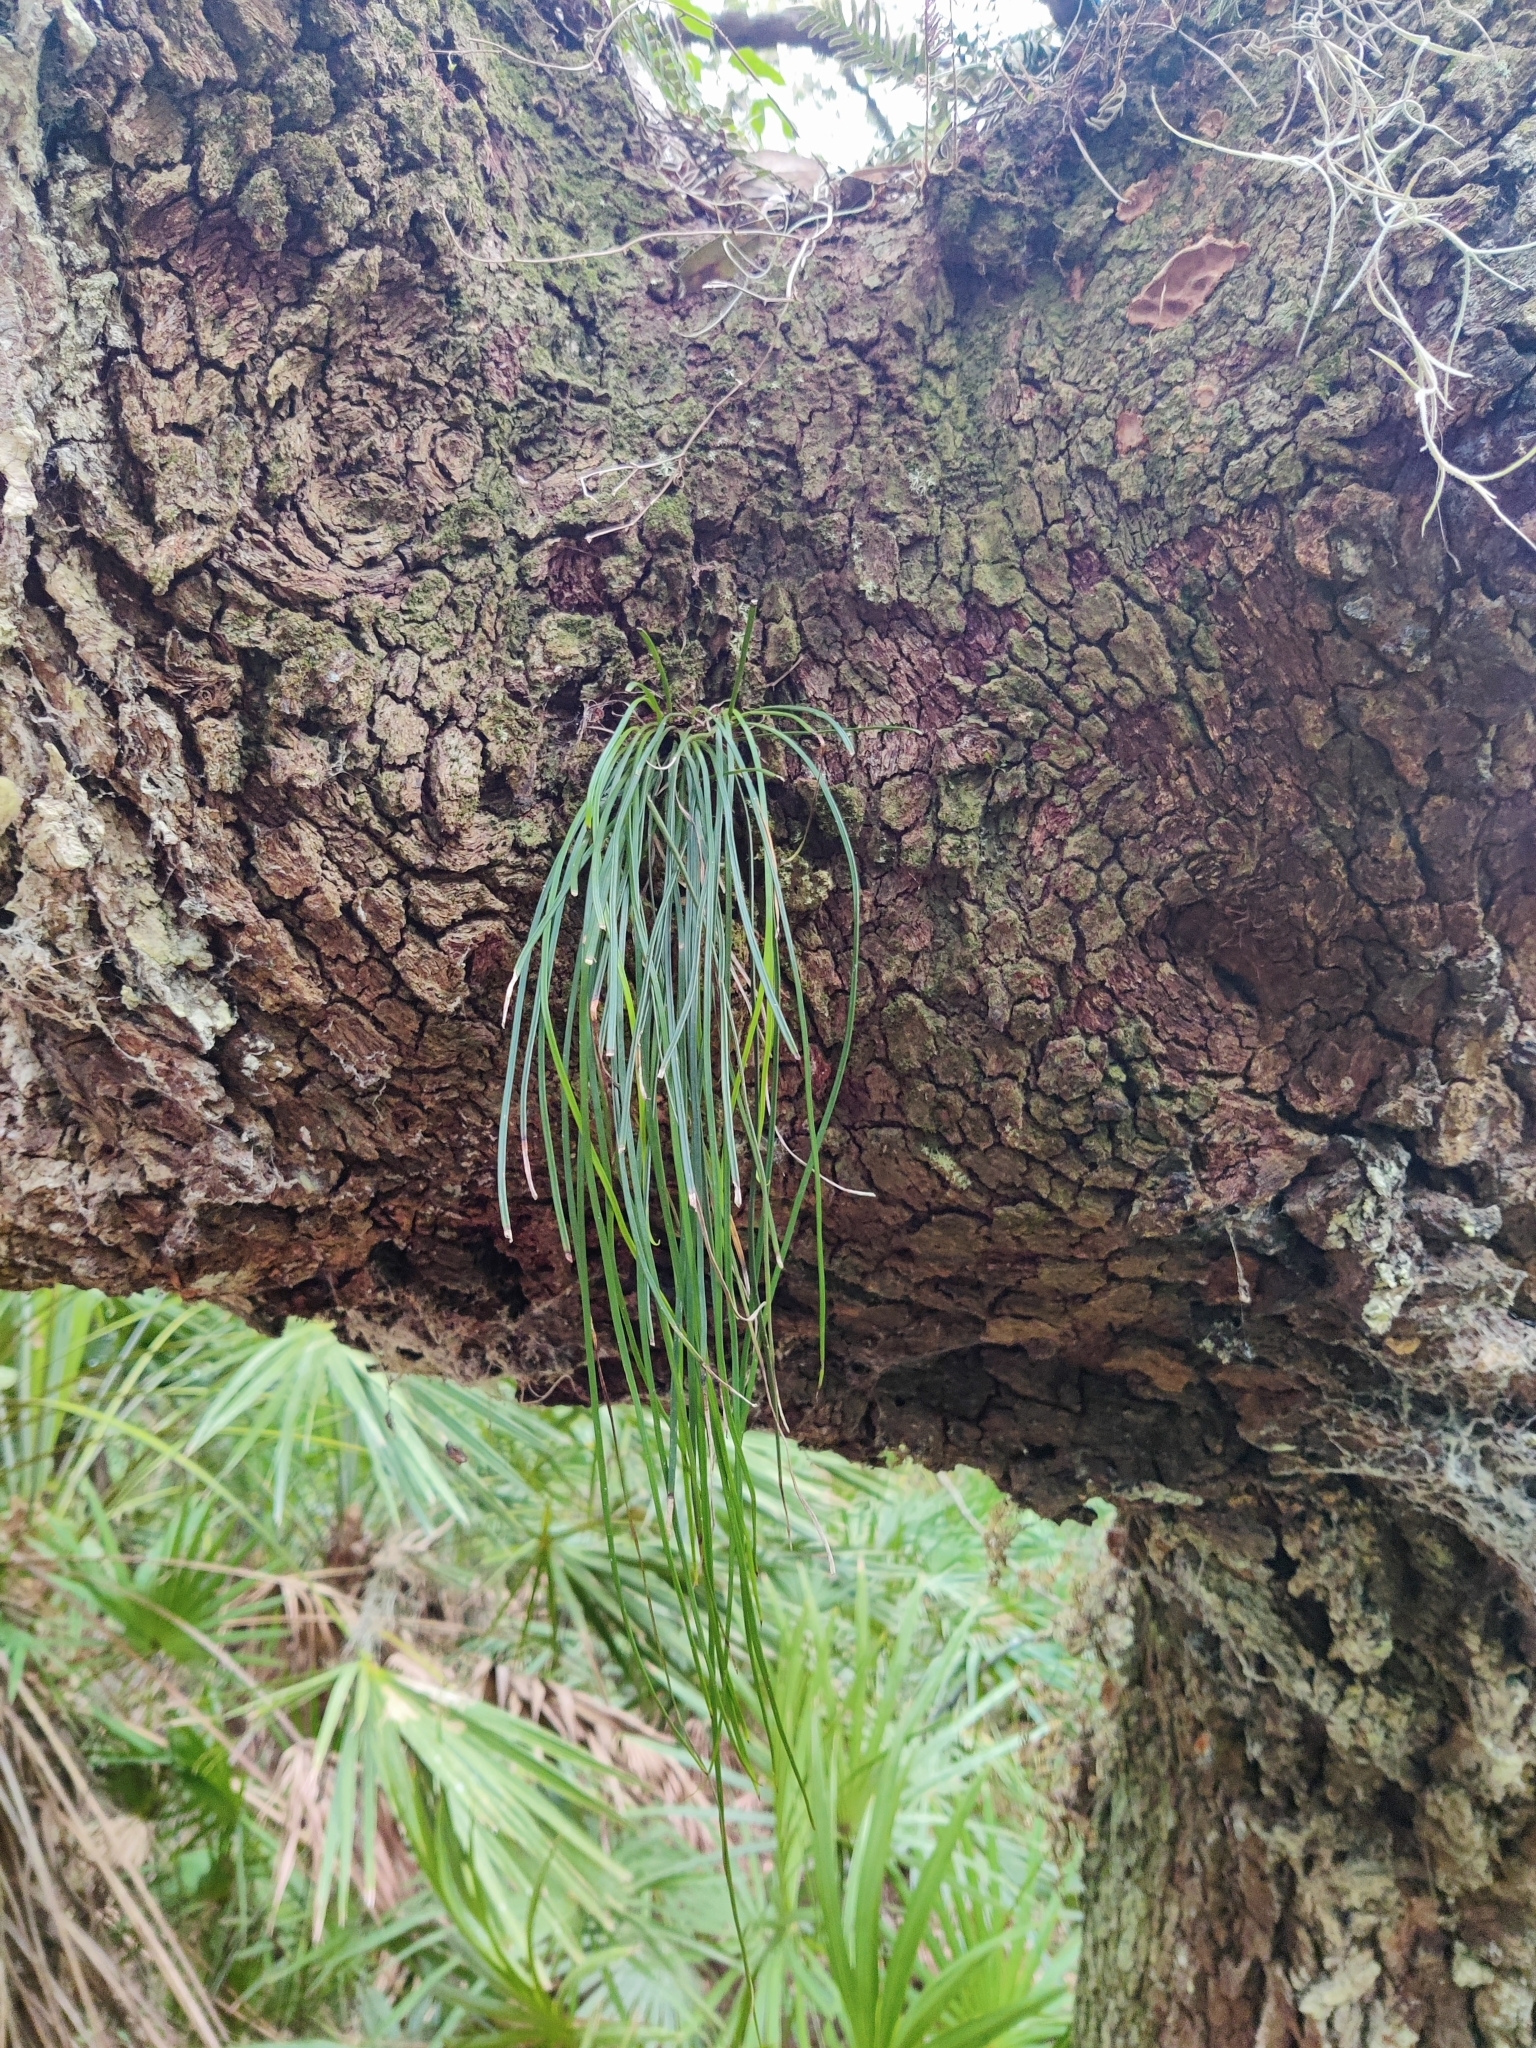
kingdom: Plantae
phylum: Tracheophyta
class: Polypodiopsida
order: Polypodiales
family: Pteridaceae
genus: Vittaria
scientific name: Vittaria lineata
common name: Shoestring fern
